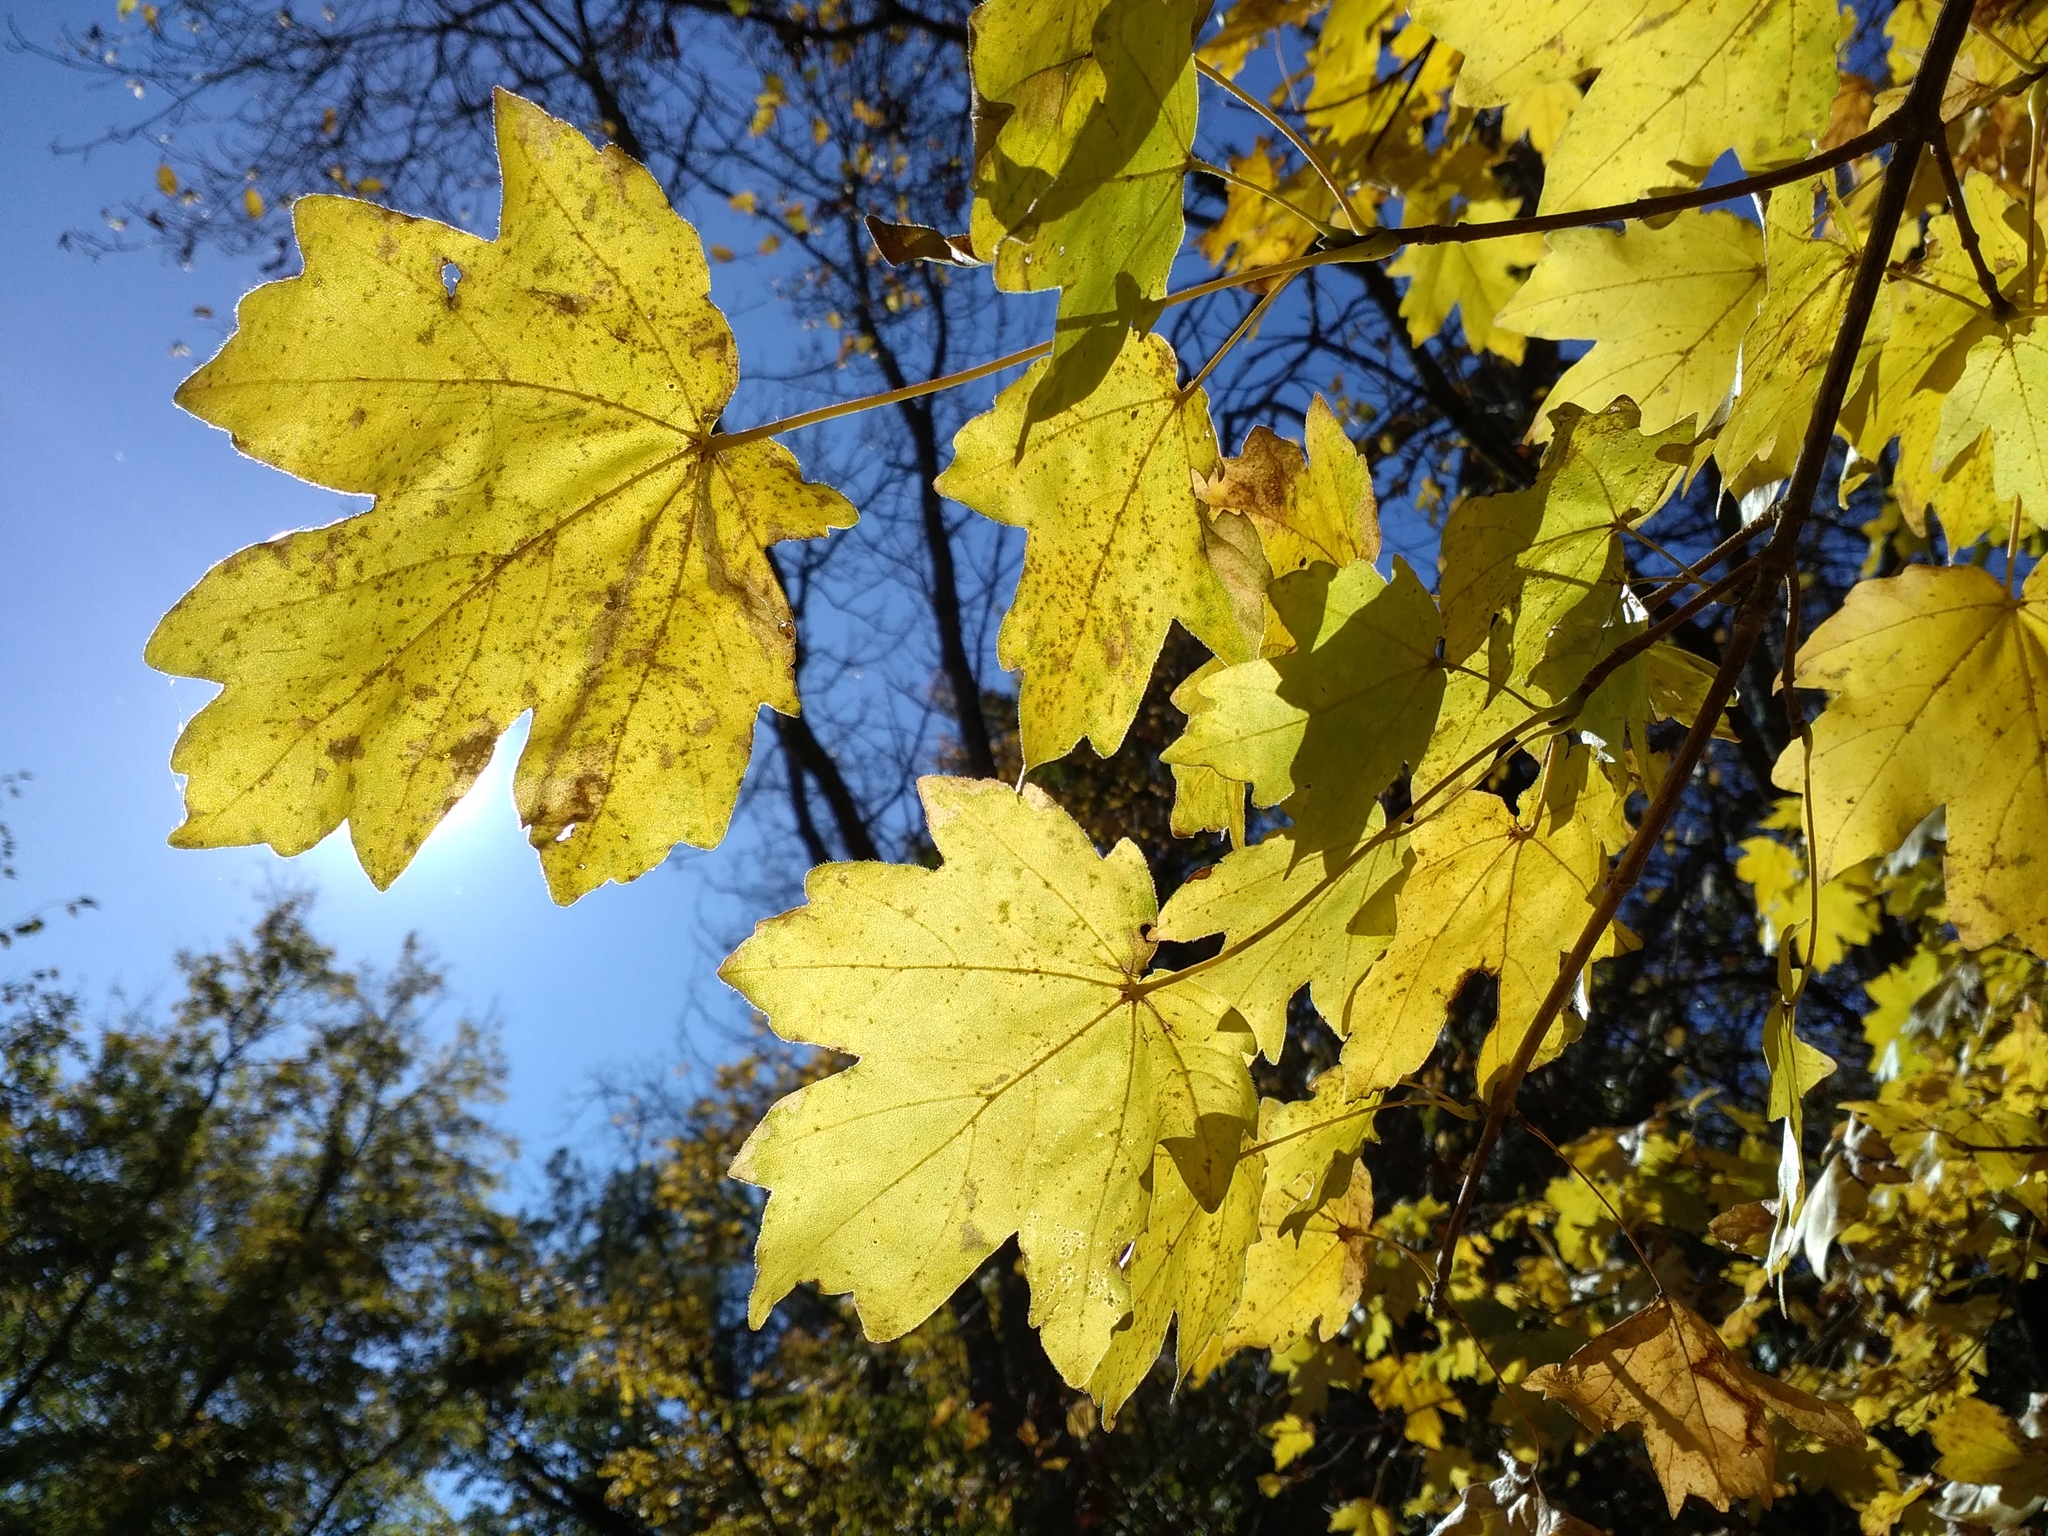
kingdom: Plantae
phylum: Tracheophyta
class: Magnoliopsida
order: Sapindales
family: Sapindaceae
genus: Acer
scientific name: Acer campestre
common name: Field maple
